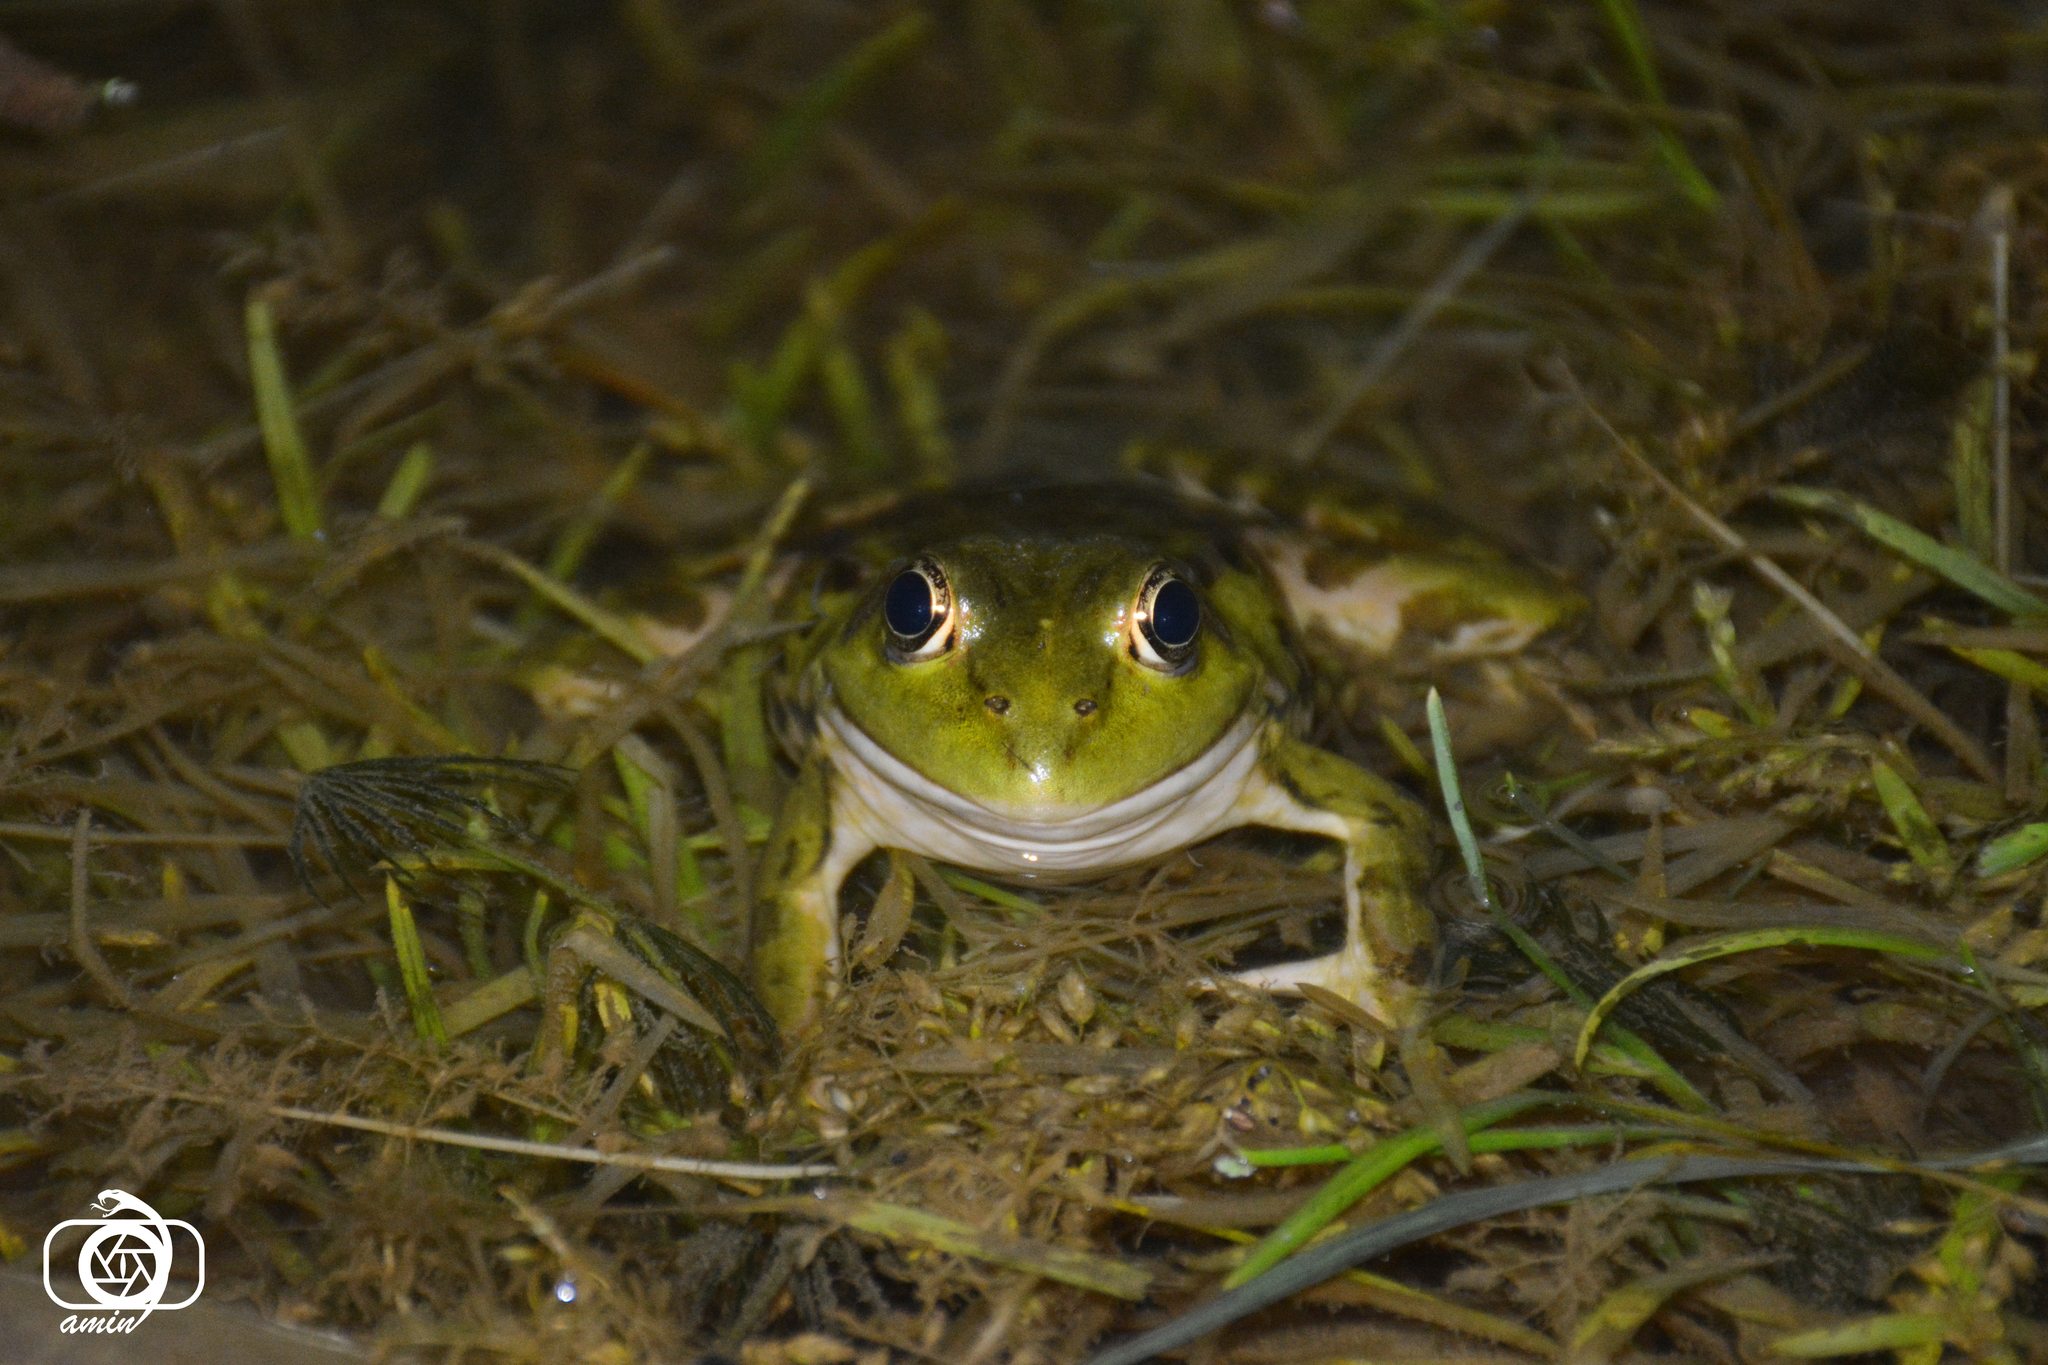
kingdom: Animalia
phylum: Chordata
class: Amphibia
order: Anura
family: Ranidae
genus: Pelophylax
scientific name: Pelophylax ridibundus
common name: Marsh frog
